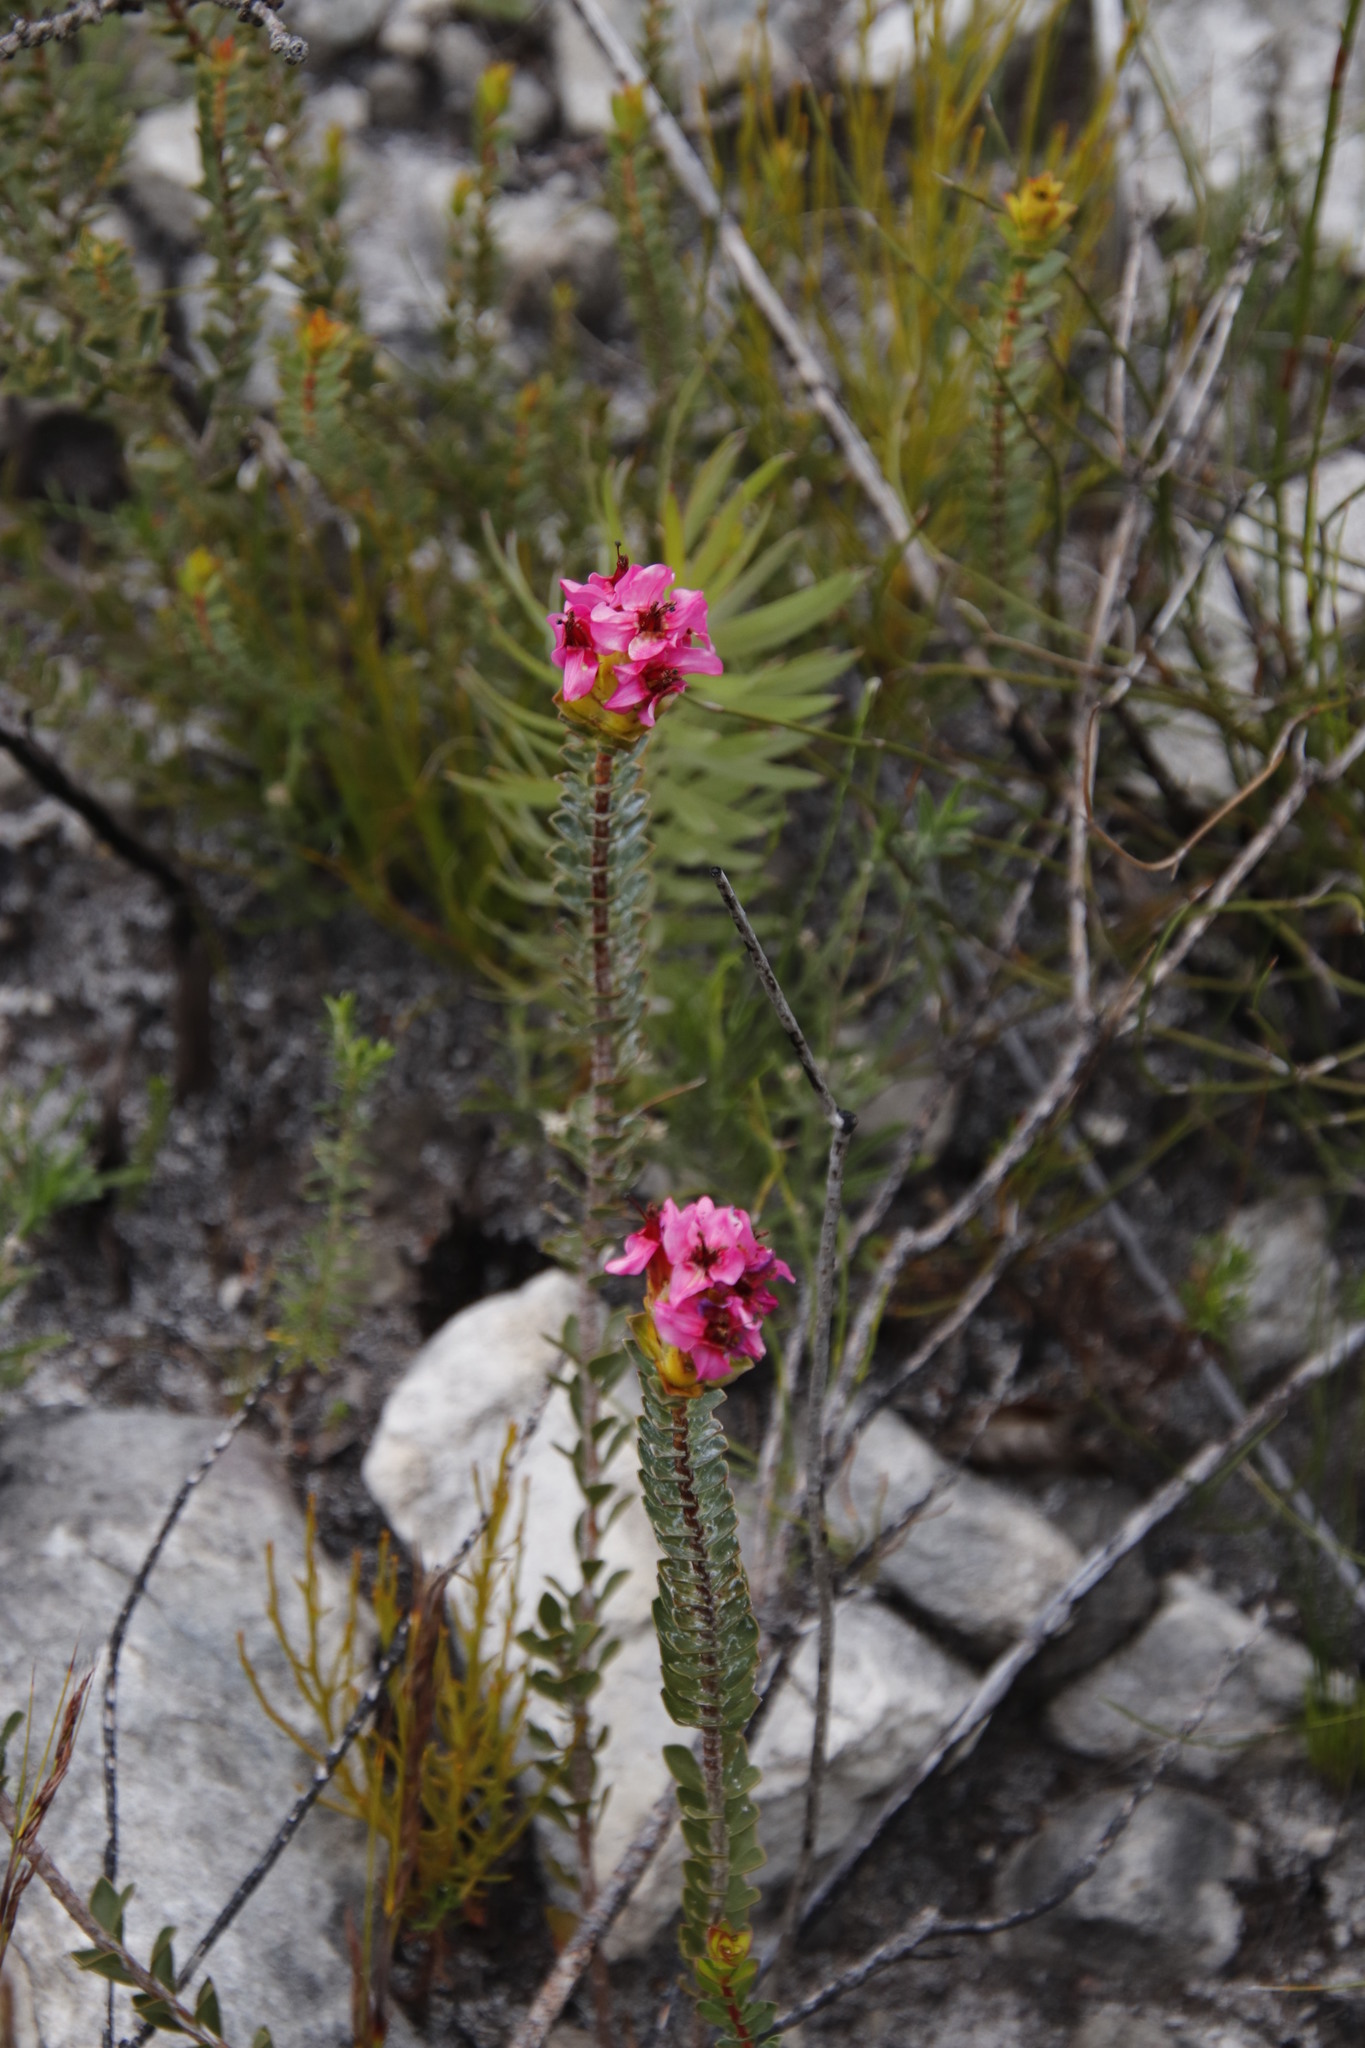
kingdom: Plantae
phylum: Tracheophyta
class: Magnoliopsida
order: Myrtales
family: Penaeaceae
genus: Saltera
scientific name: Saltera sarcocolla
